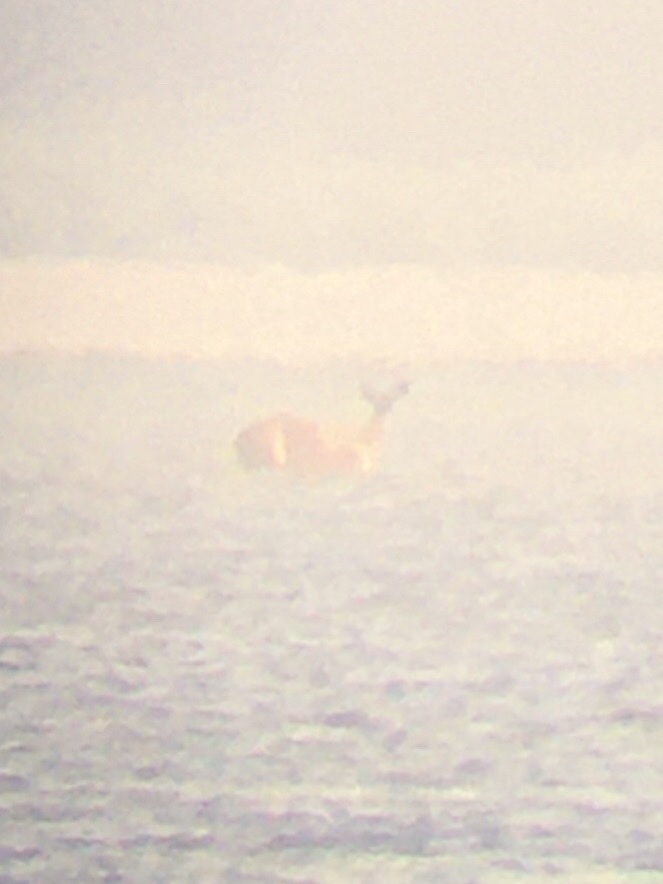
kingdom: Animalia
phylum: Chordata
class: Mammalia
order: Artiodactyla
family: Cervidae
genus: Odocoileus
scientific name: Odocoileus virginianus
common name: White-tailed deer
